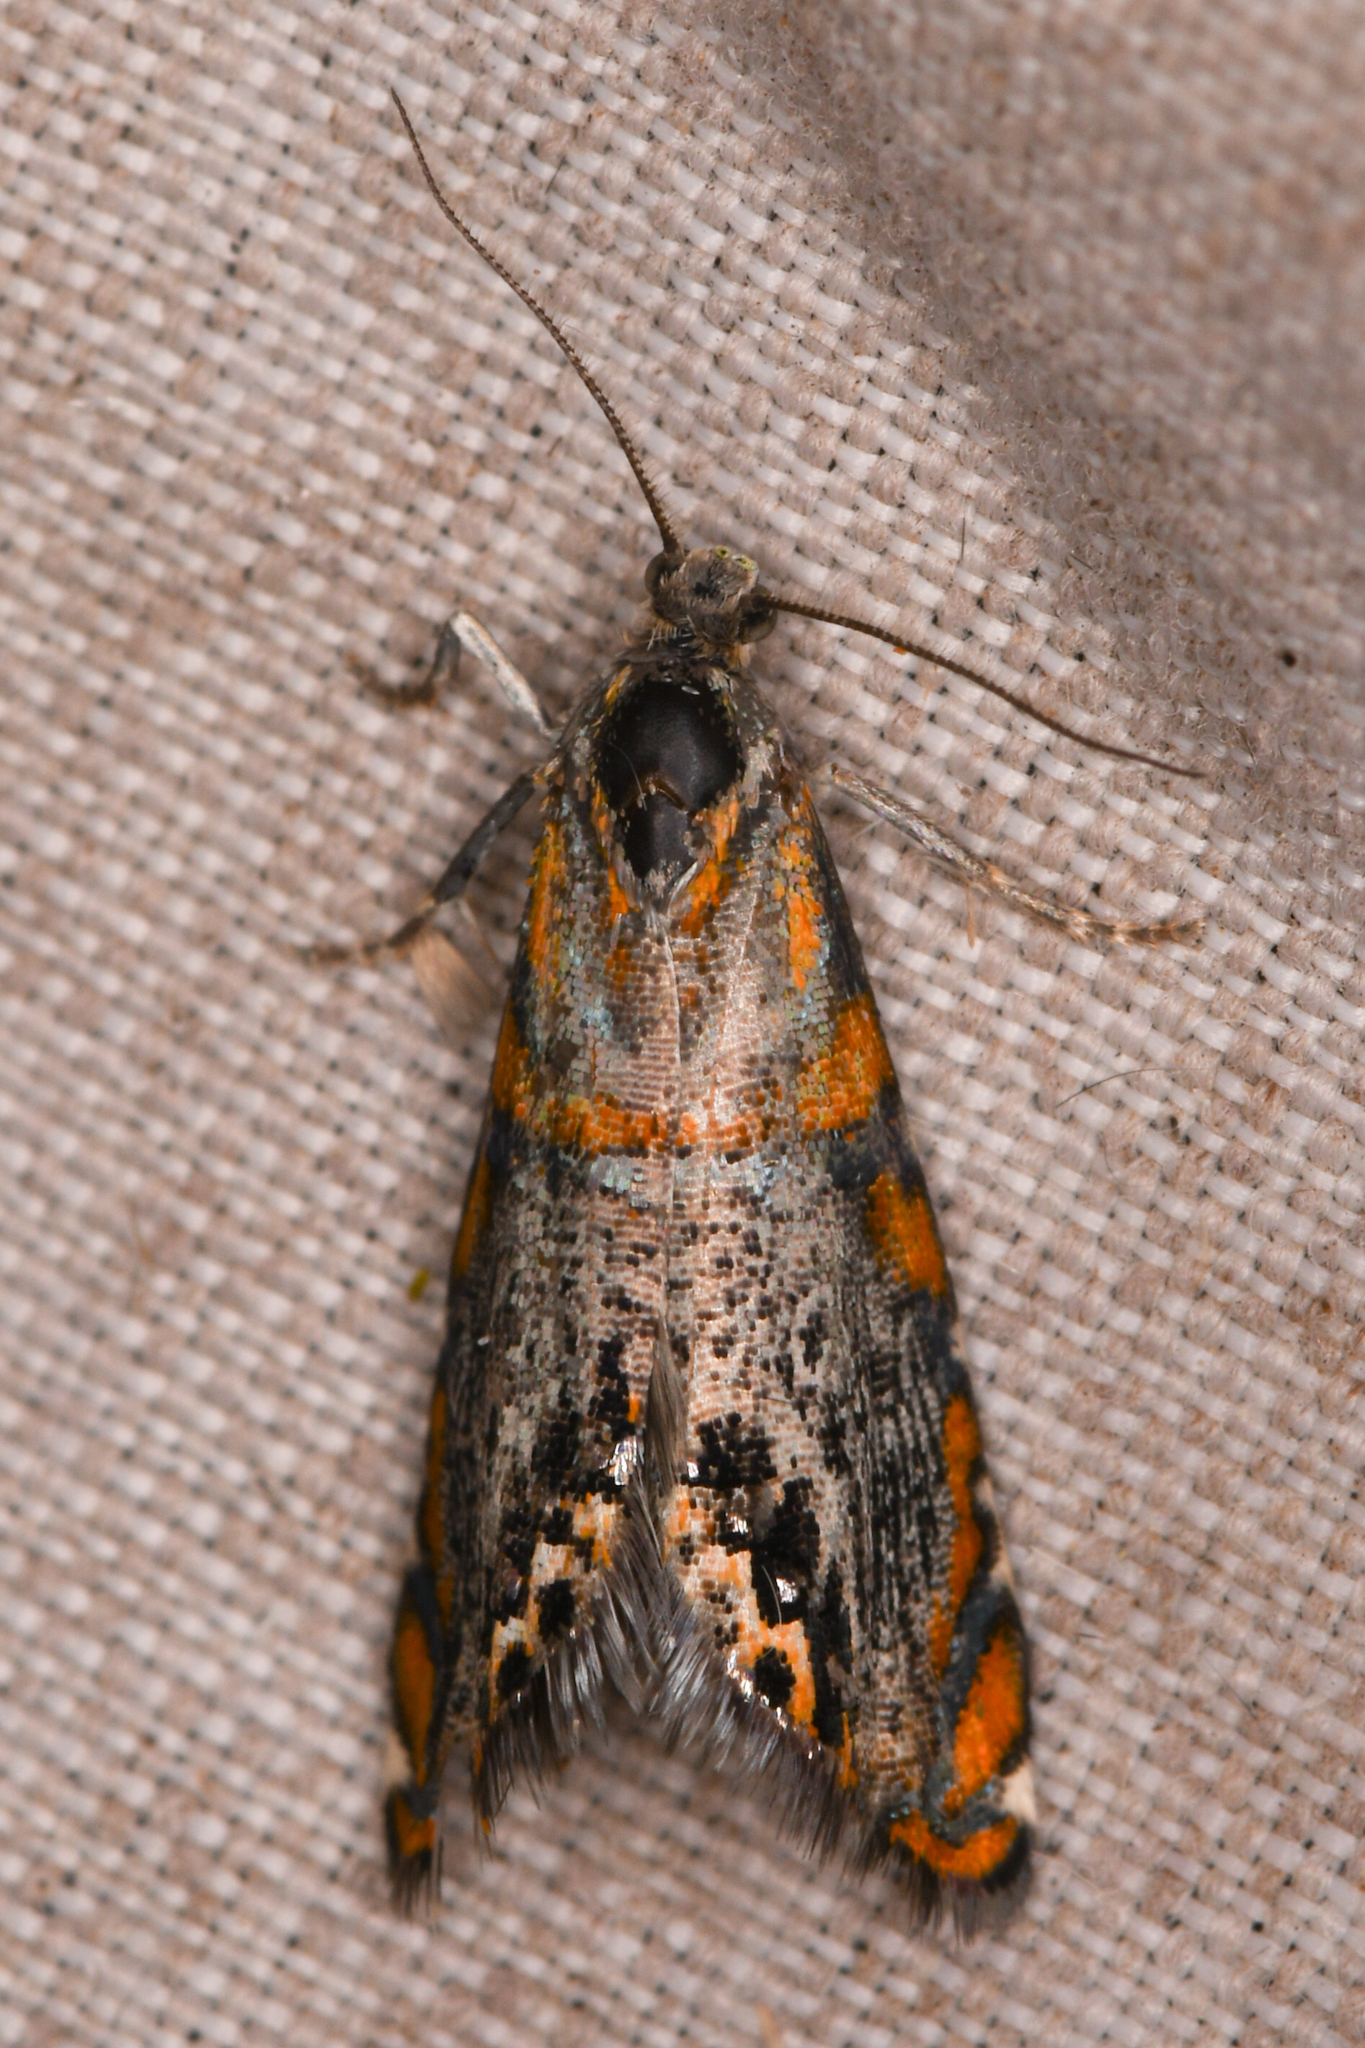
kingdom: Animalia
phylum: Arthropoda
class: Insecta
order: Lepidoptera
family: Tortricidae
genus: Thaumatographa
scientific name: Thaumatographa regalis
